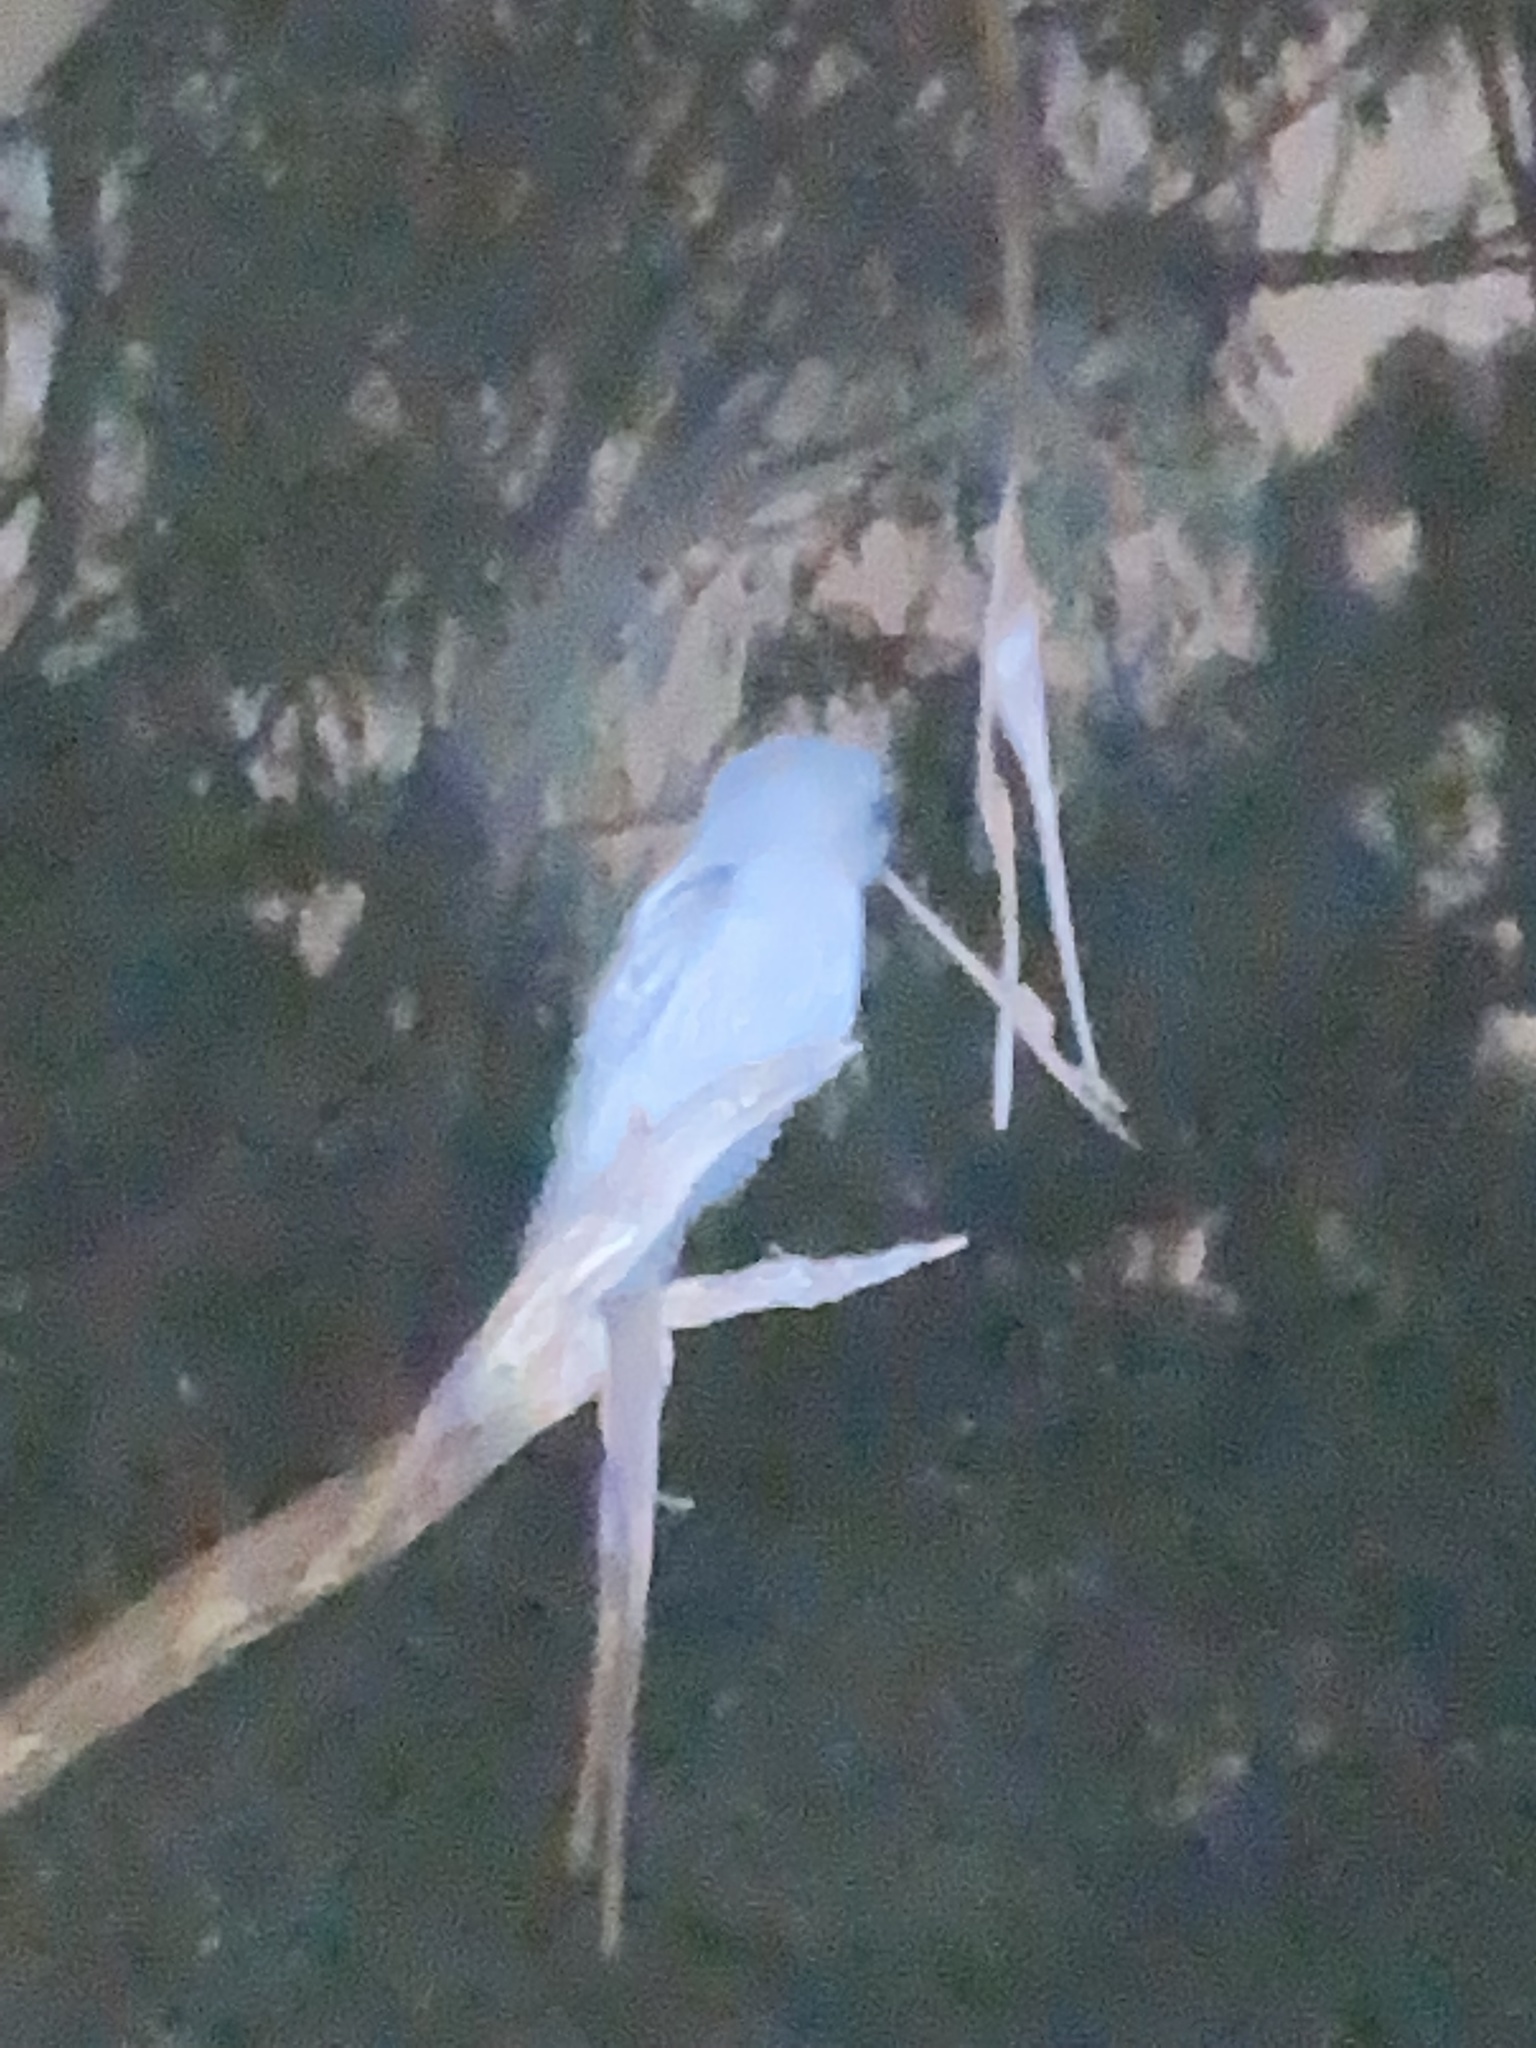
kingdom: Animalia
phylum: Chordata
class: Aves
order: Caprimulgiformes
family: Podargidae
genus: Podargus
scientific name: Podargus strigoides
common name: Tawny frogmouth
